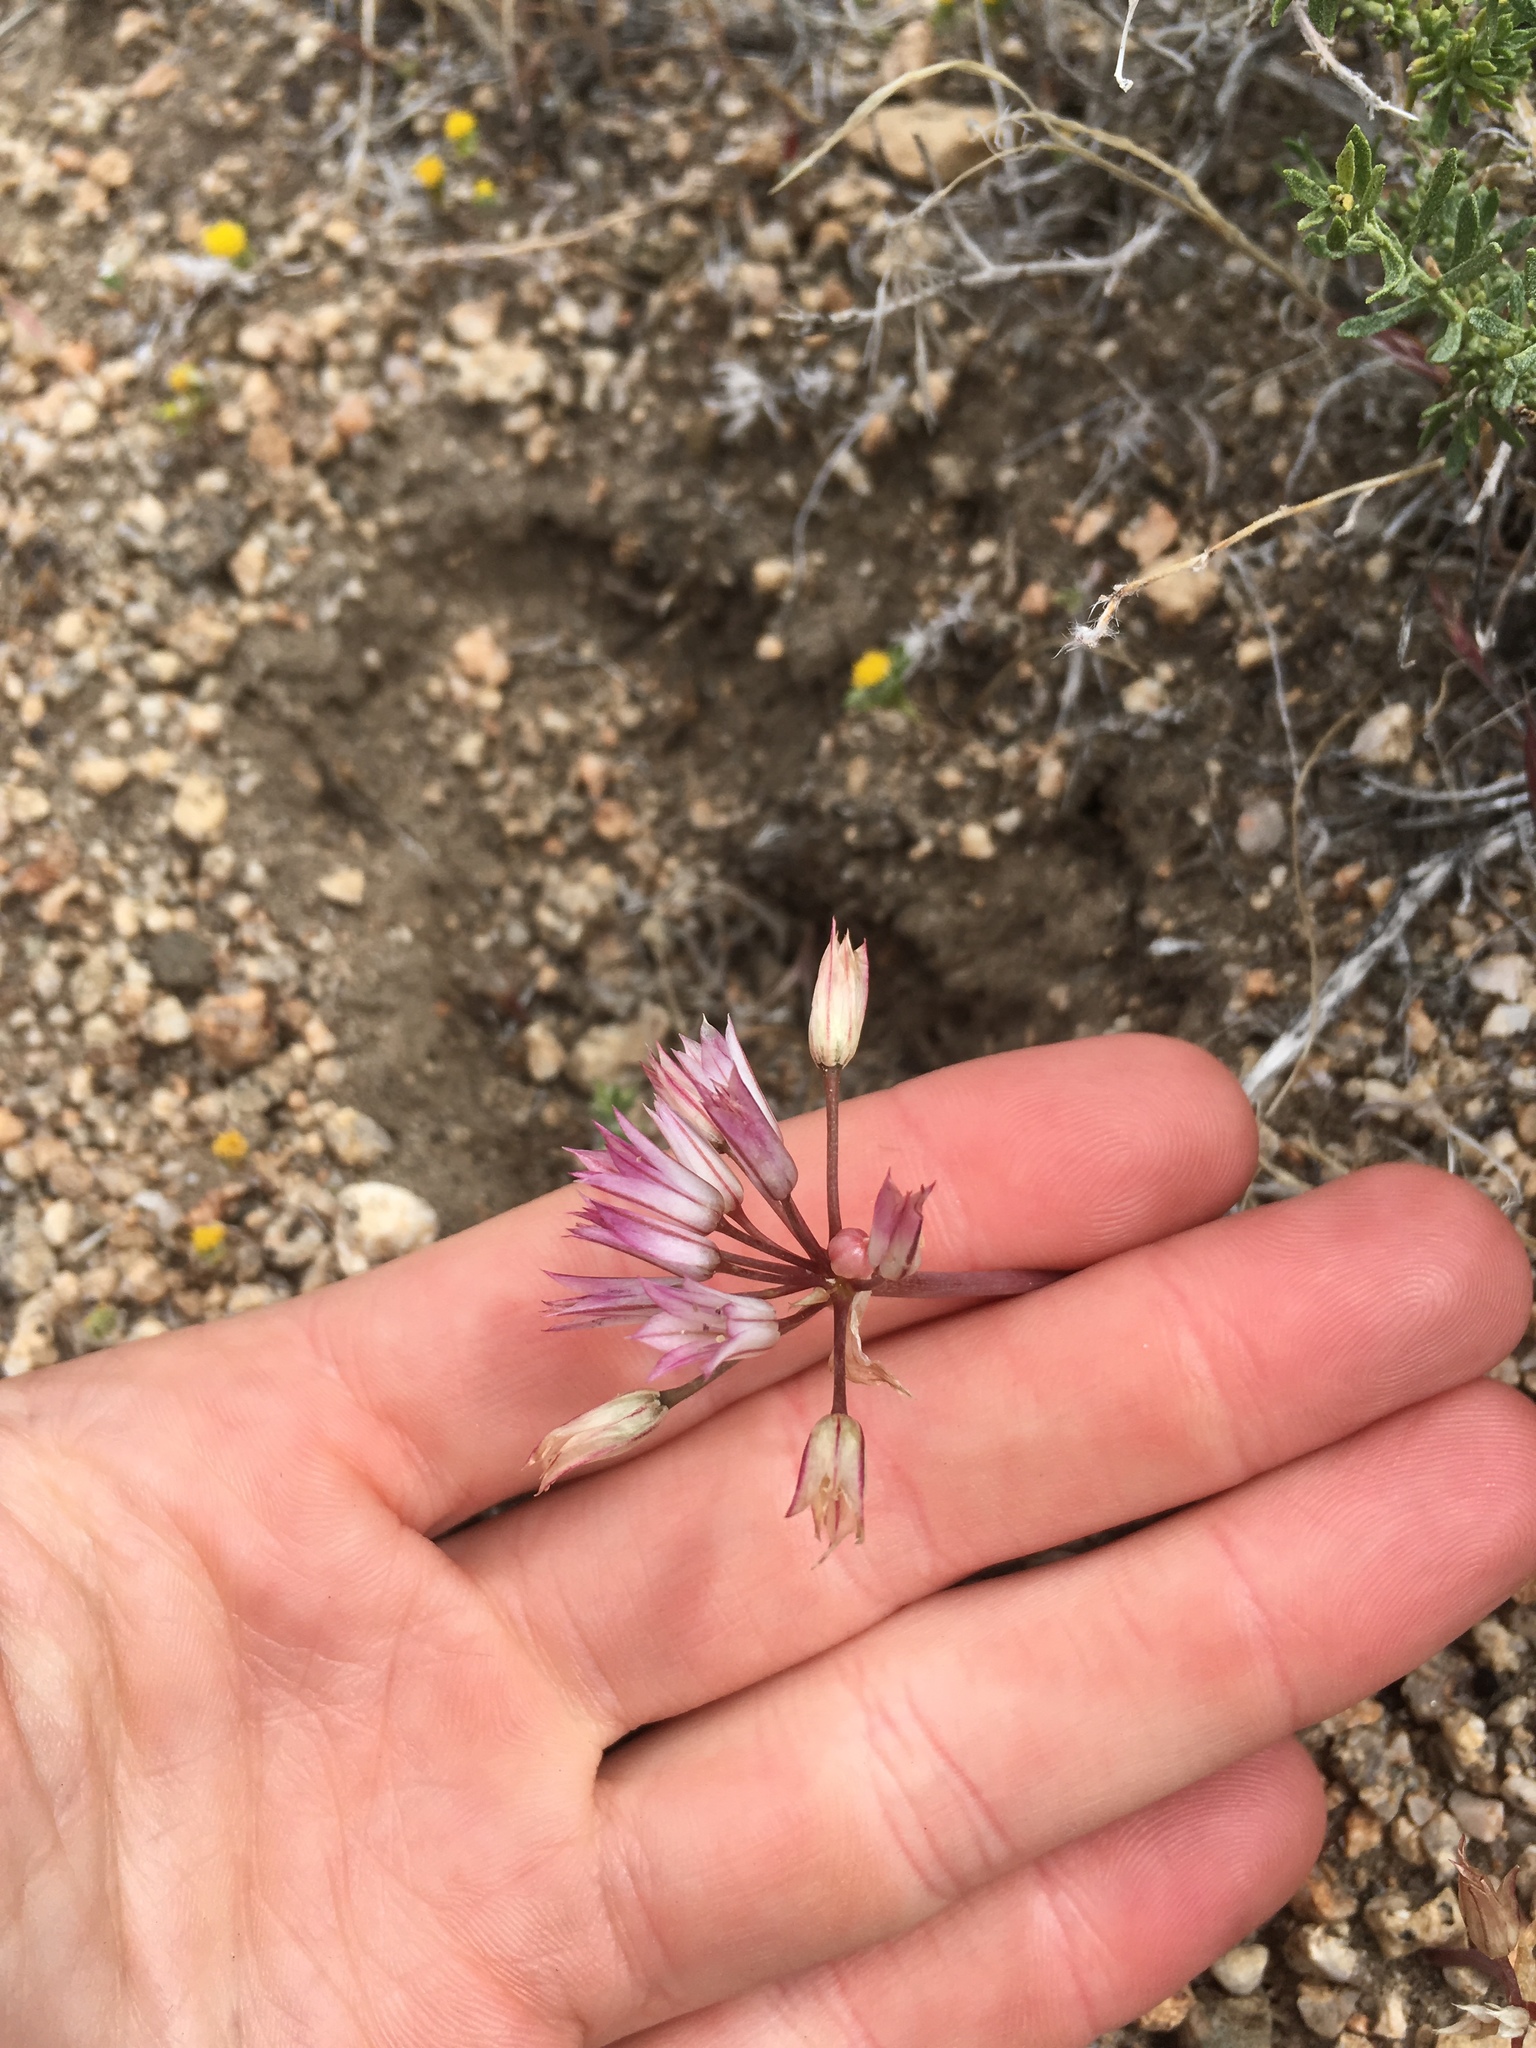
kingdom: Plantae
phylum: Tracheophyta
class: Liliopsida
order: Asparagales
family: Amaryllidaceae
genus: Allium
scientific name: Allium atrorubens
